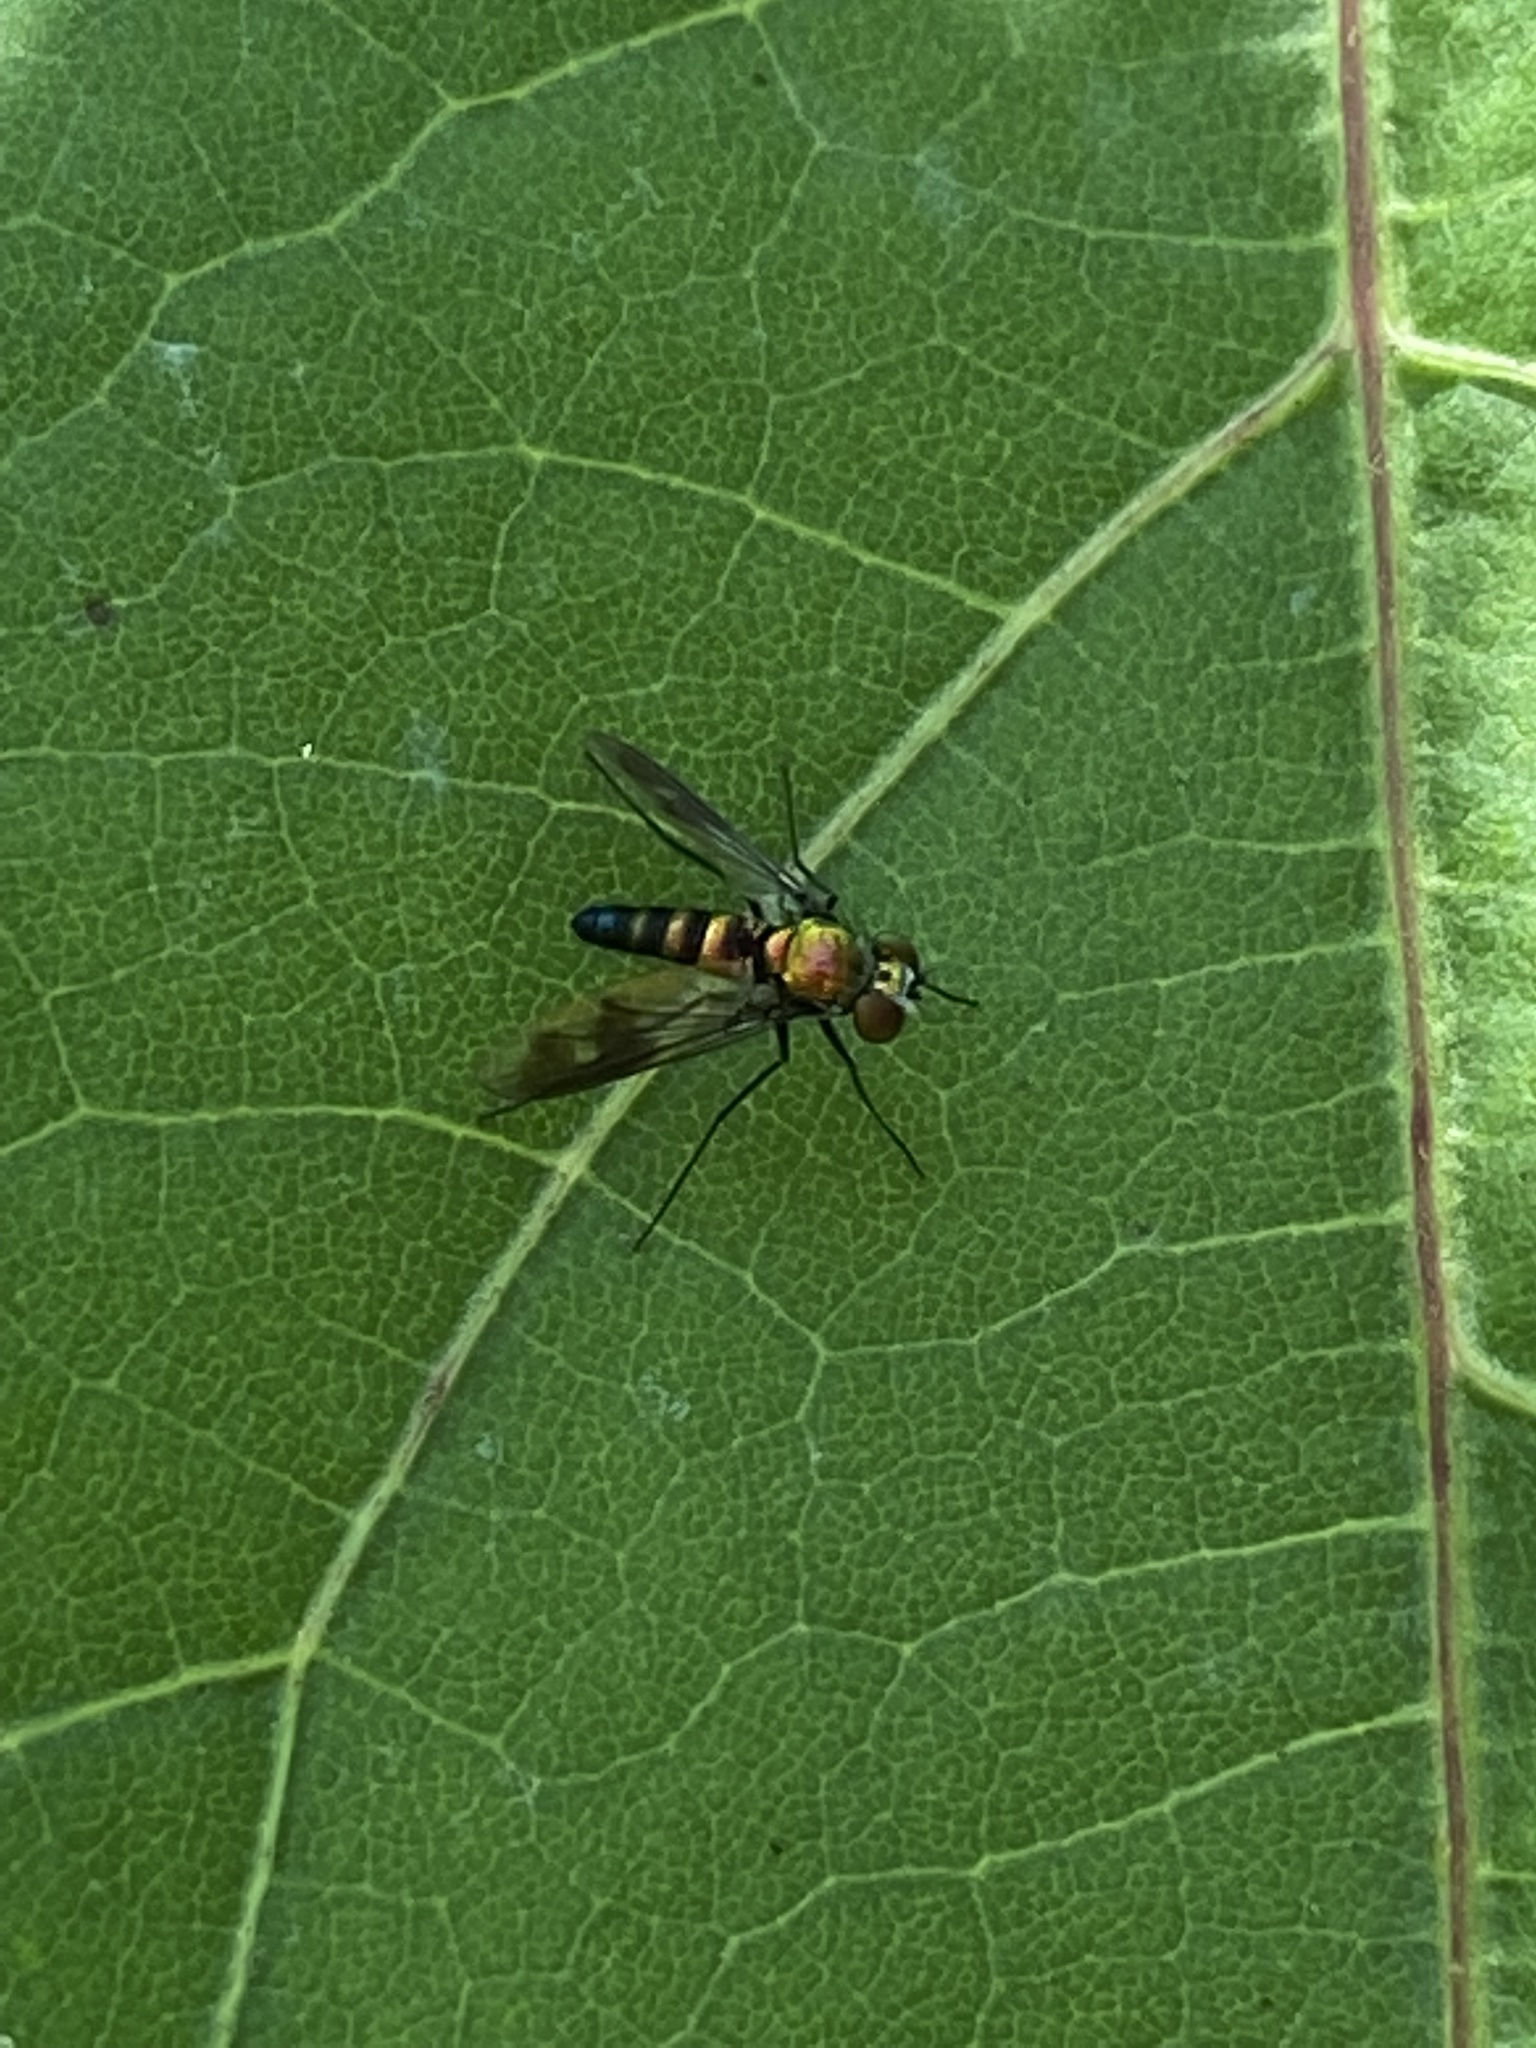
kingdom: Animalia
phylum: Arthropoda
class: Insecta
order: Diptera
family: Dolichopodidae
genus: Condylostylus
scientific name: Condylostylus patibulatus
